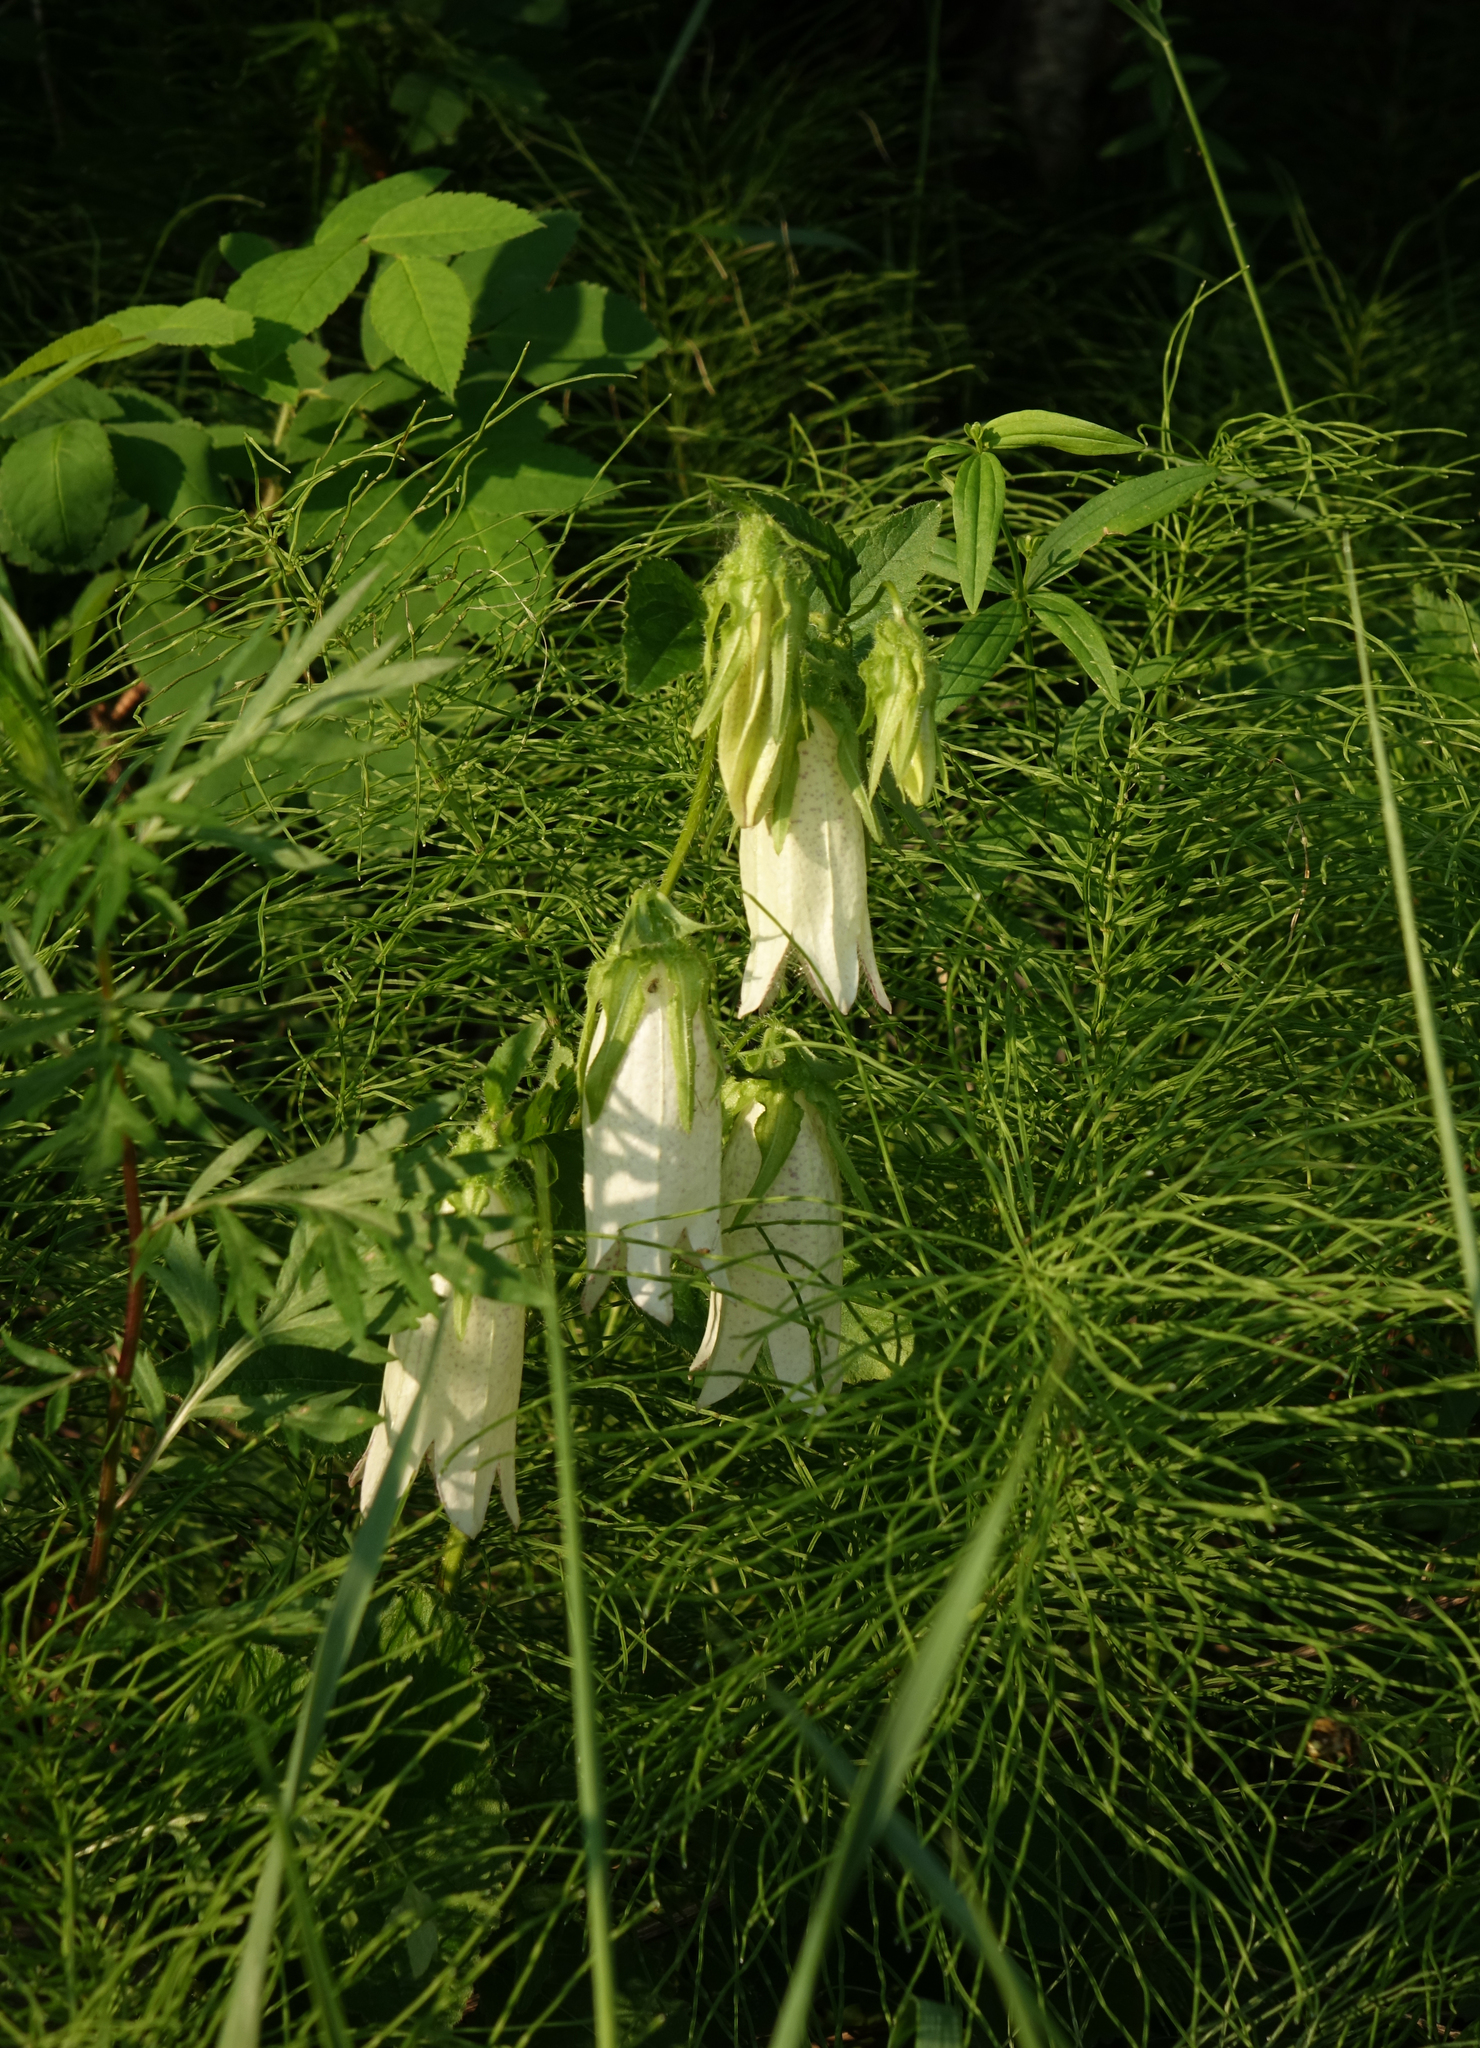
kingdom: Plantae
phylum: Tracheophyta
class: Polypodiopsida
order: Equisetales
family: Equisetaceae
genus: Equisetum
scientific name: Equisetum pratense
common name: Meadow horsetail
